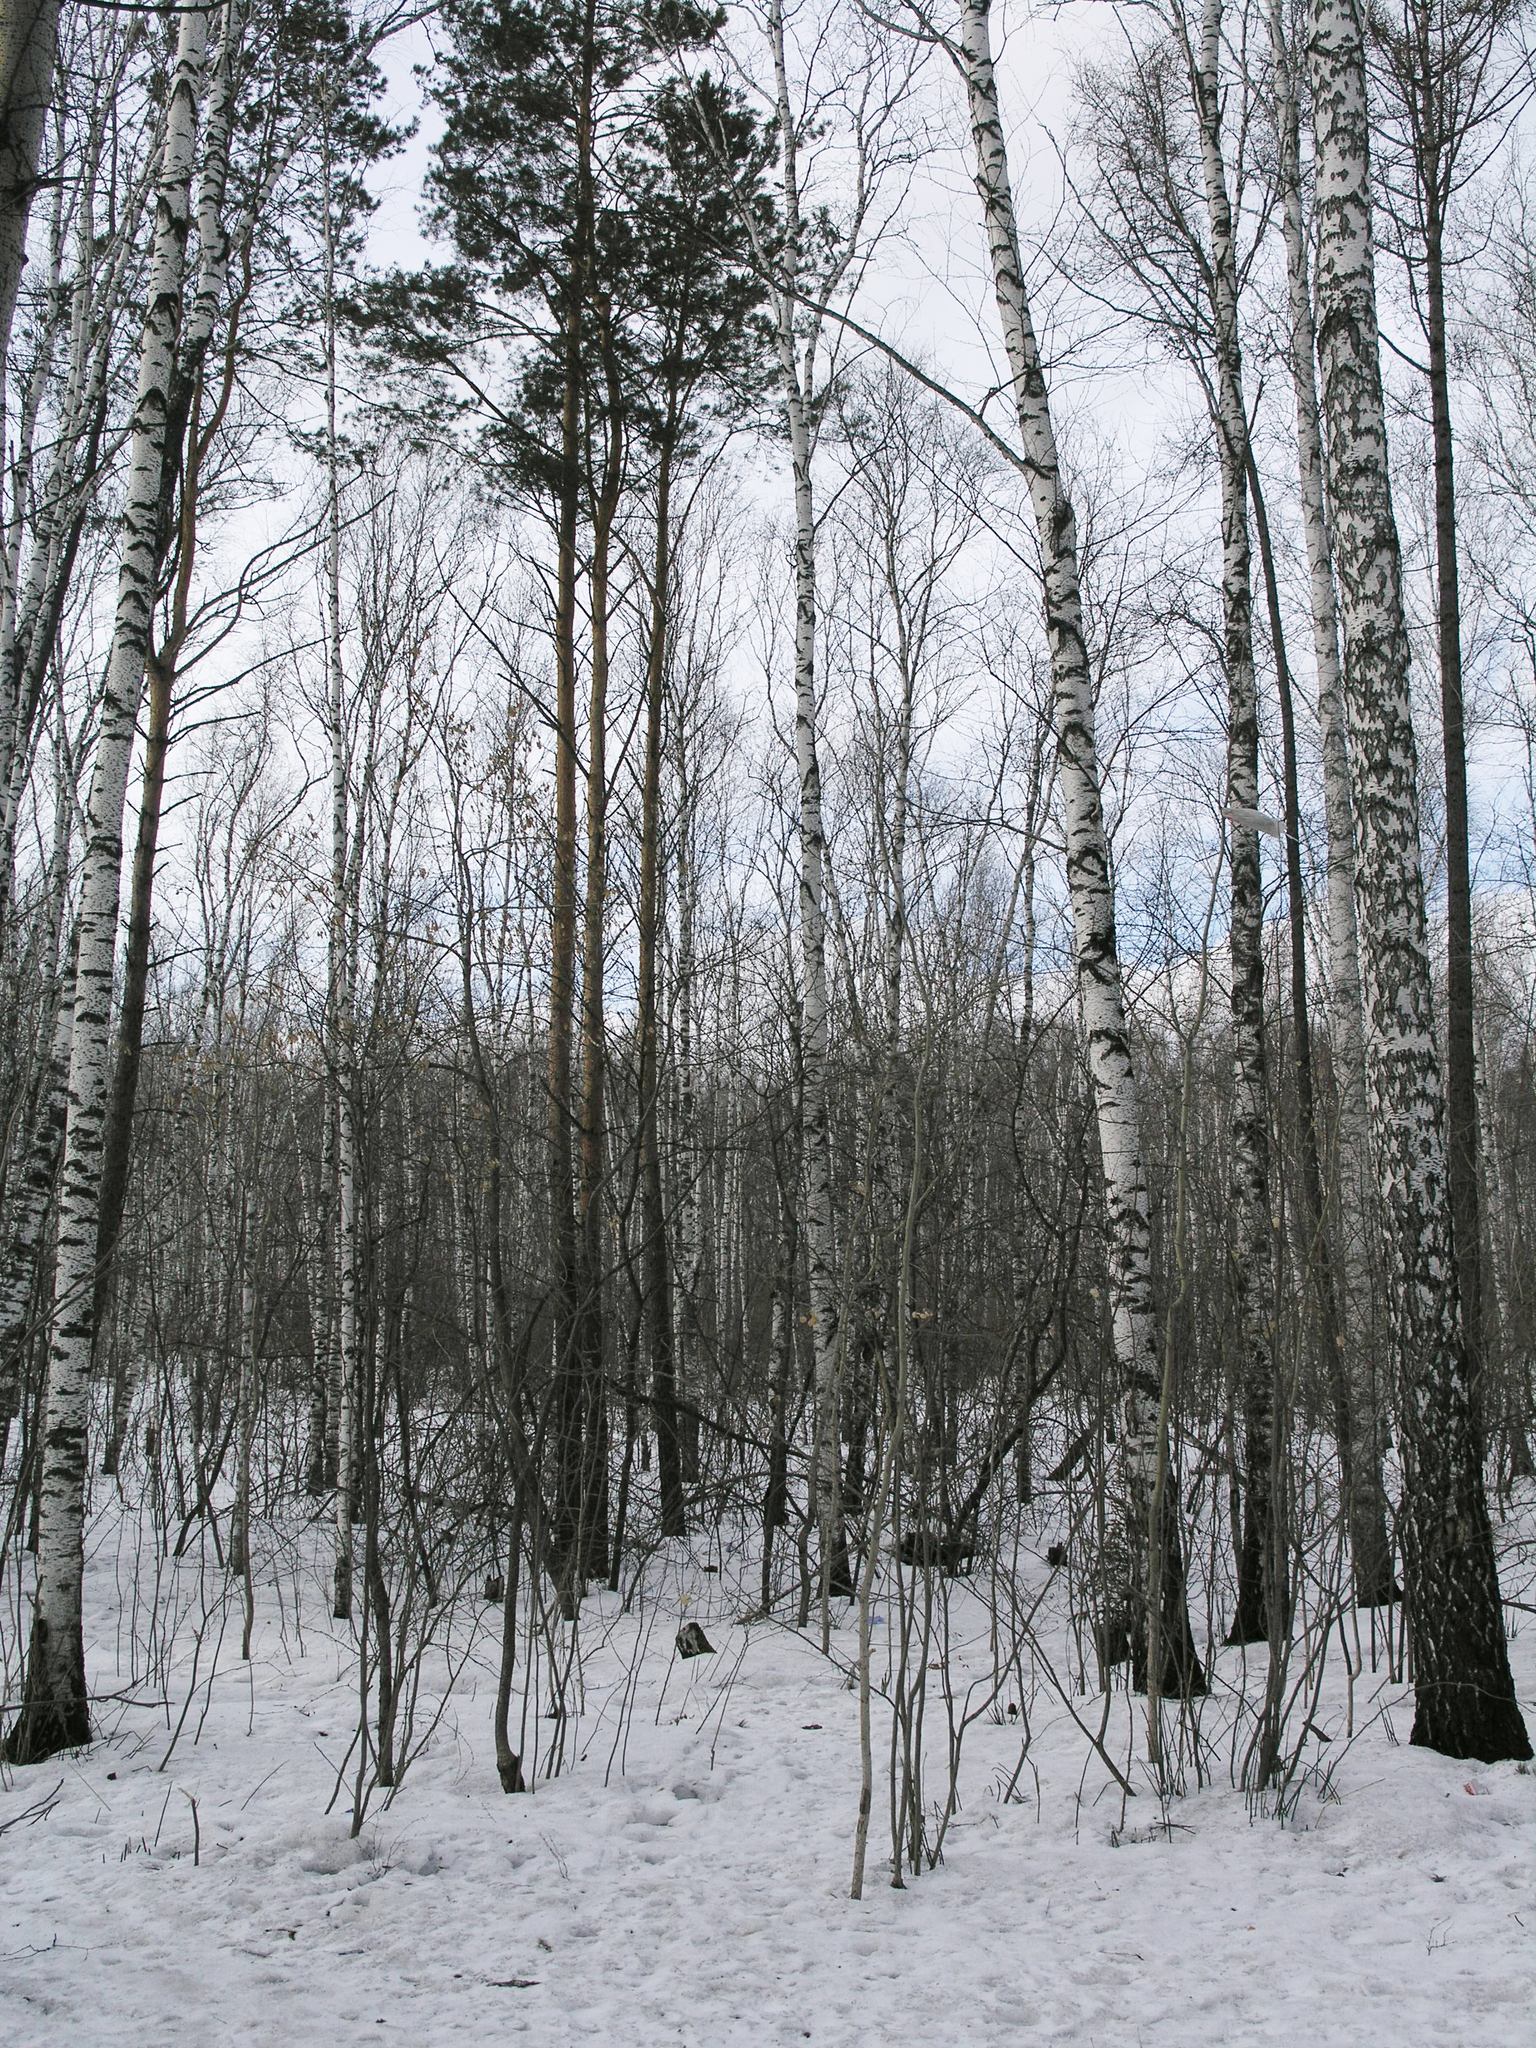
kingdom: Plantae
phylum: Tracheophyta
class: Pinopsida
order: Pinales
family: Pinaceae
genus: Pinus
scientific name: Pinus sylvestris
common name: Scots pine
